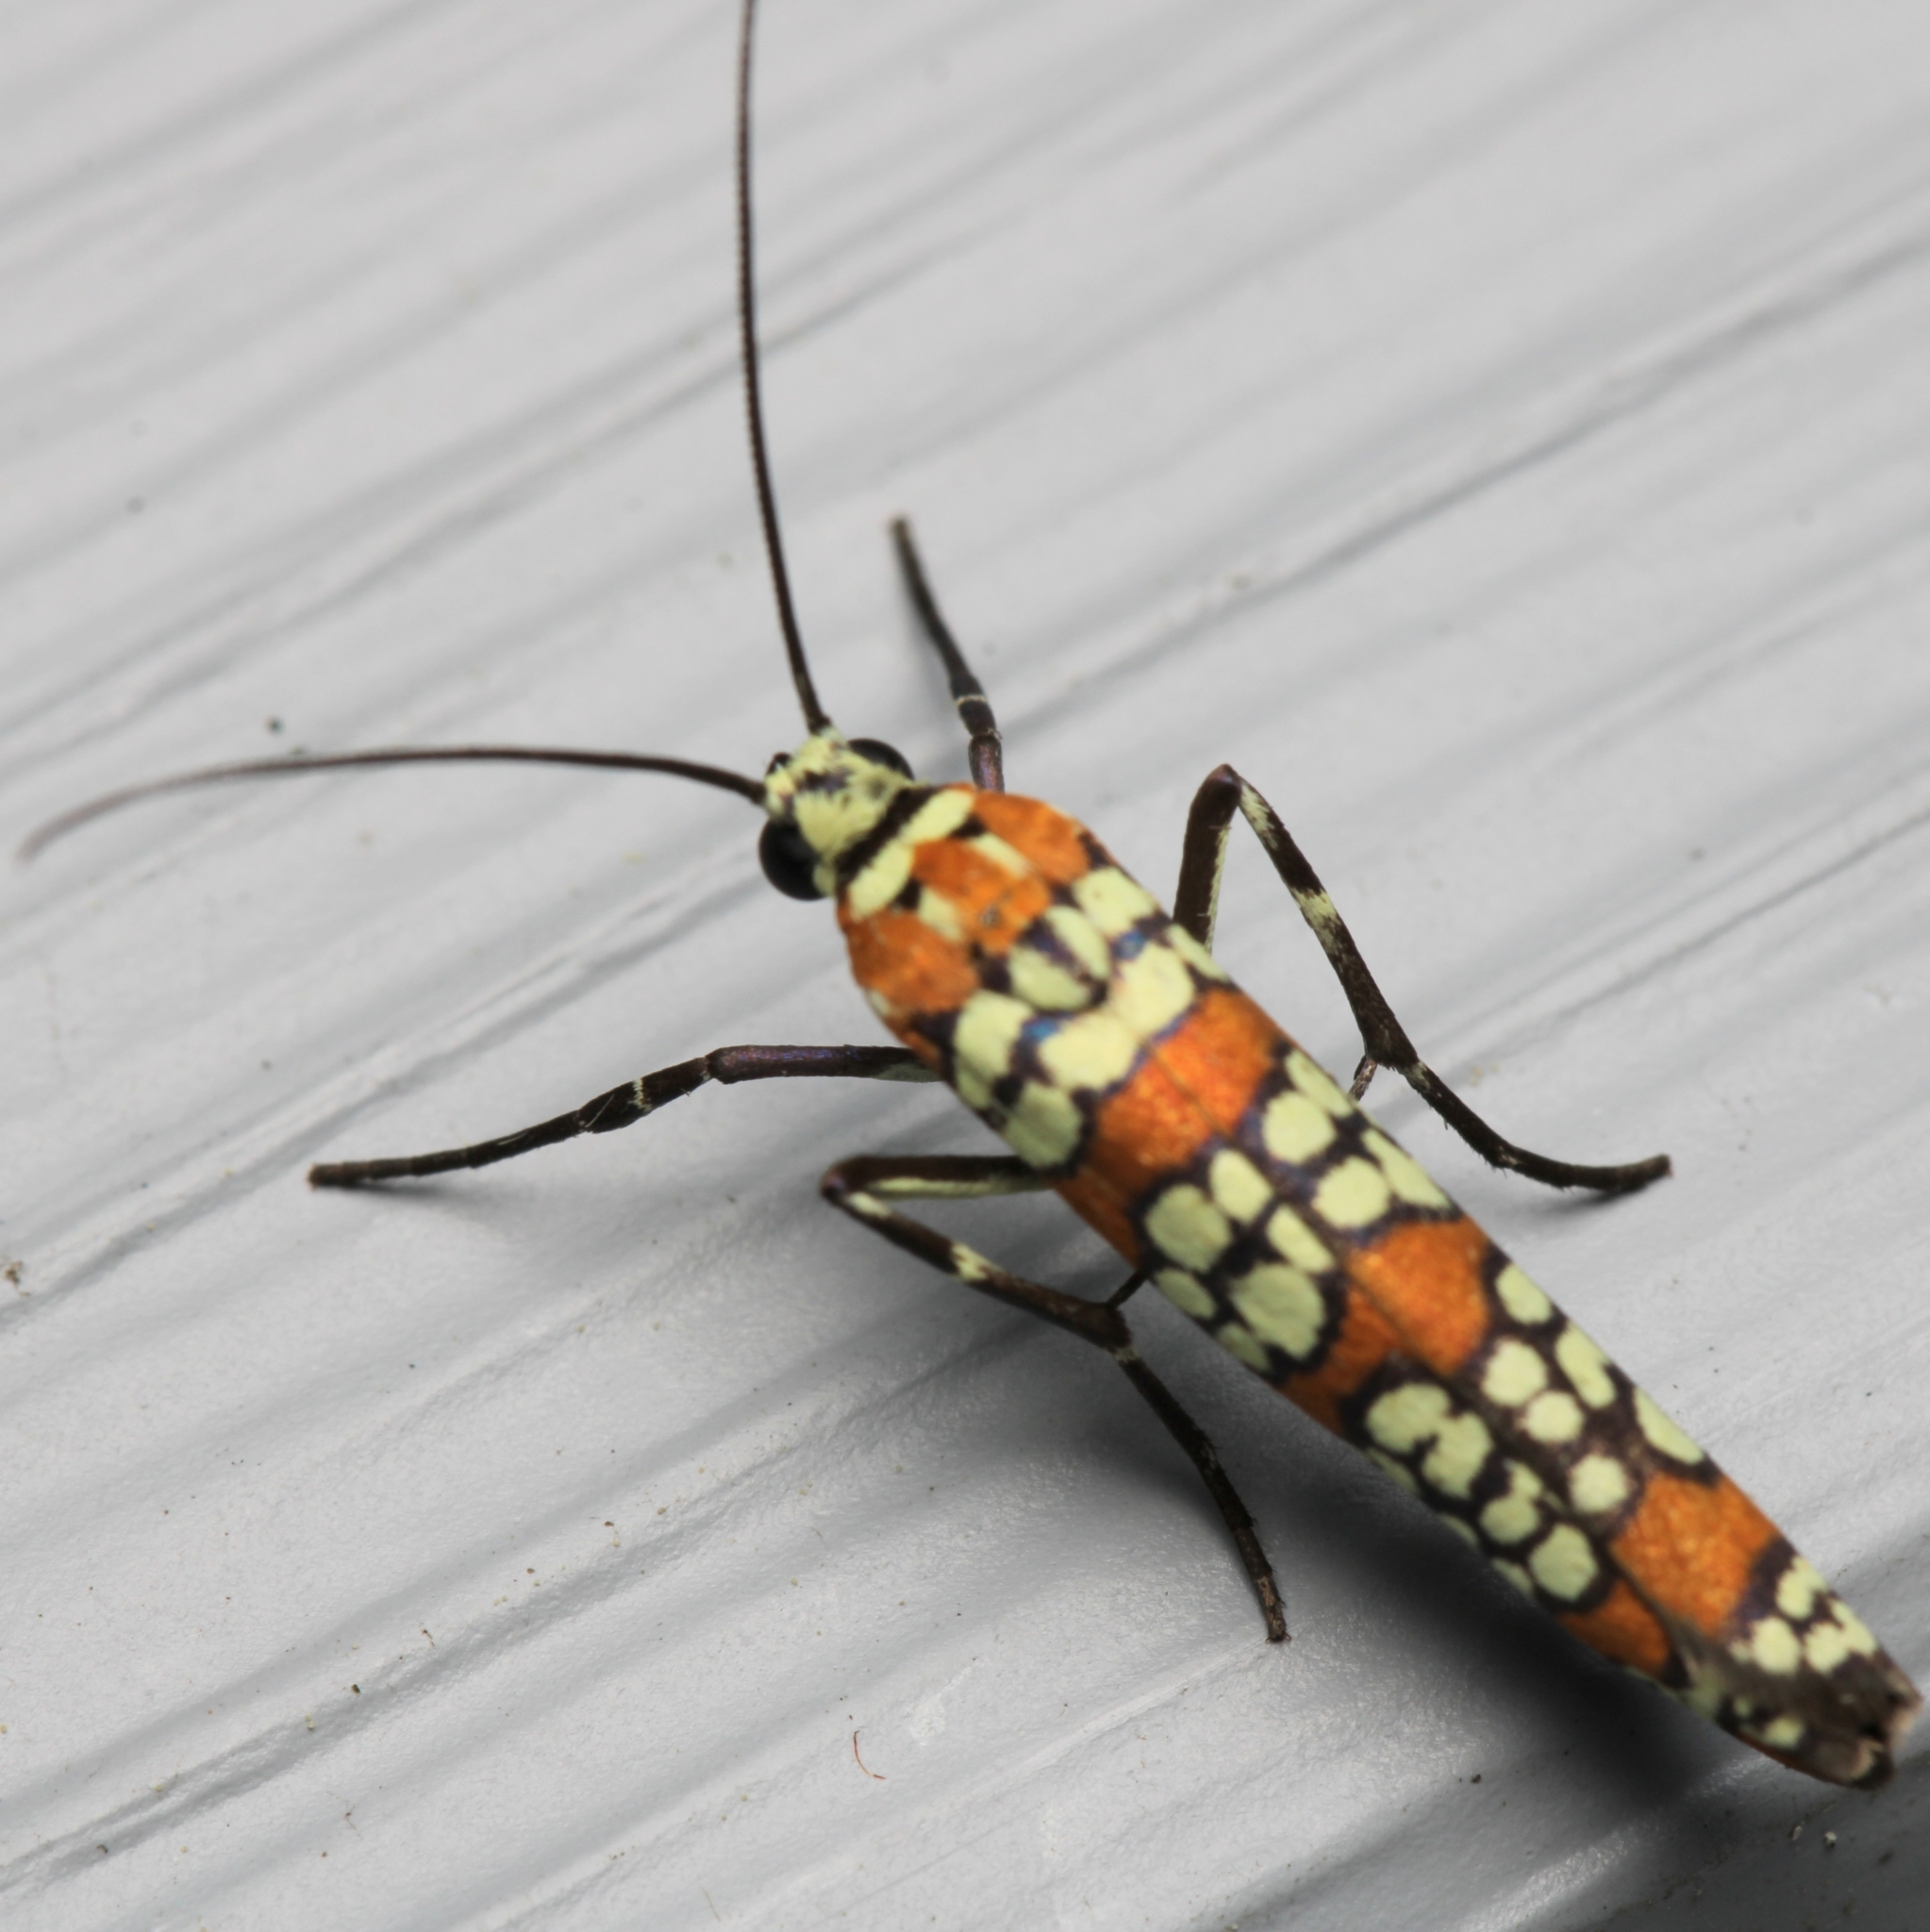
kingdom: Animalia
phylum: Arthropoda
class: Insecta
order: Lepidoptera
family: Attevidae
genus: Atteva
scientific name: Atteva punctella
